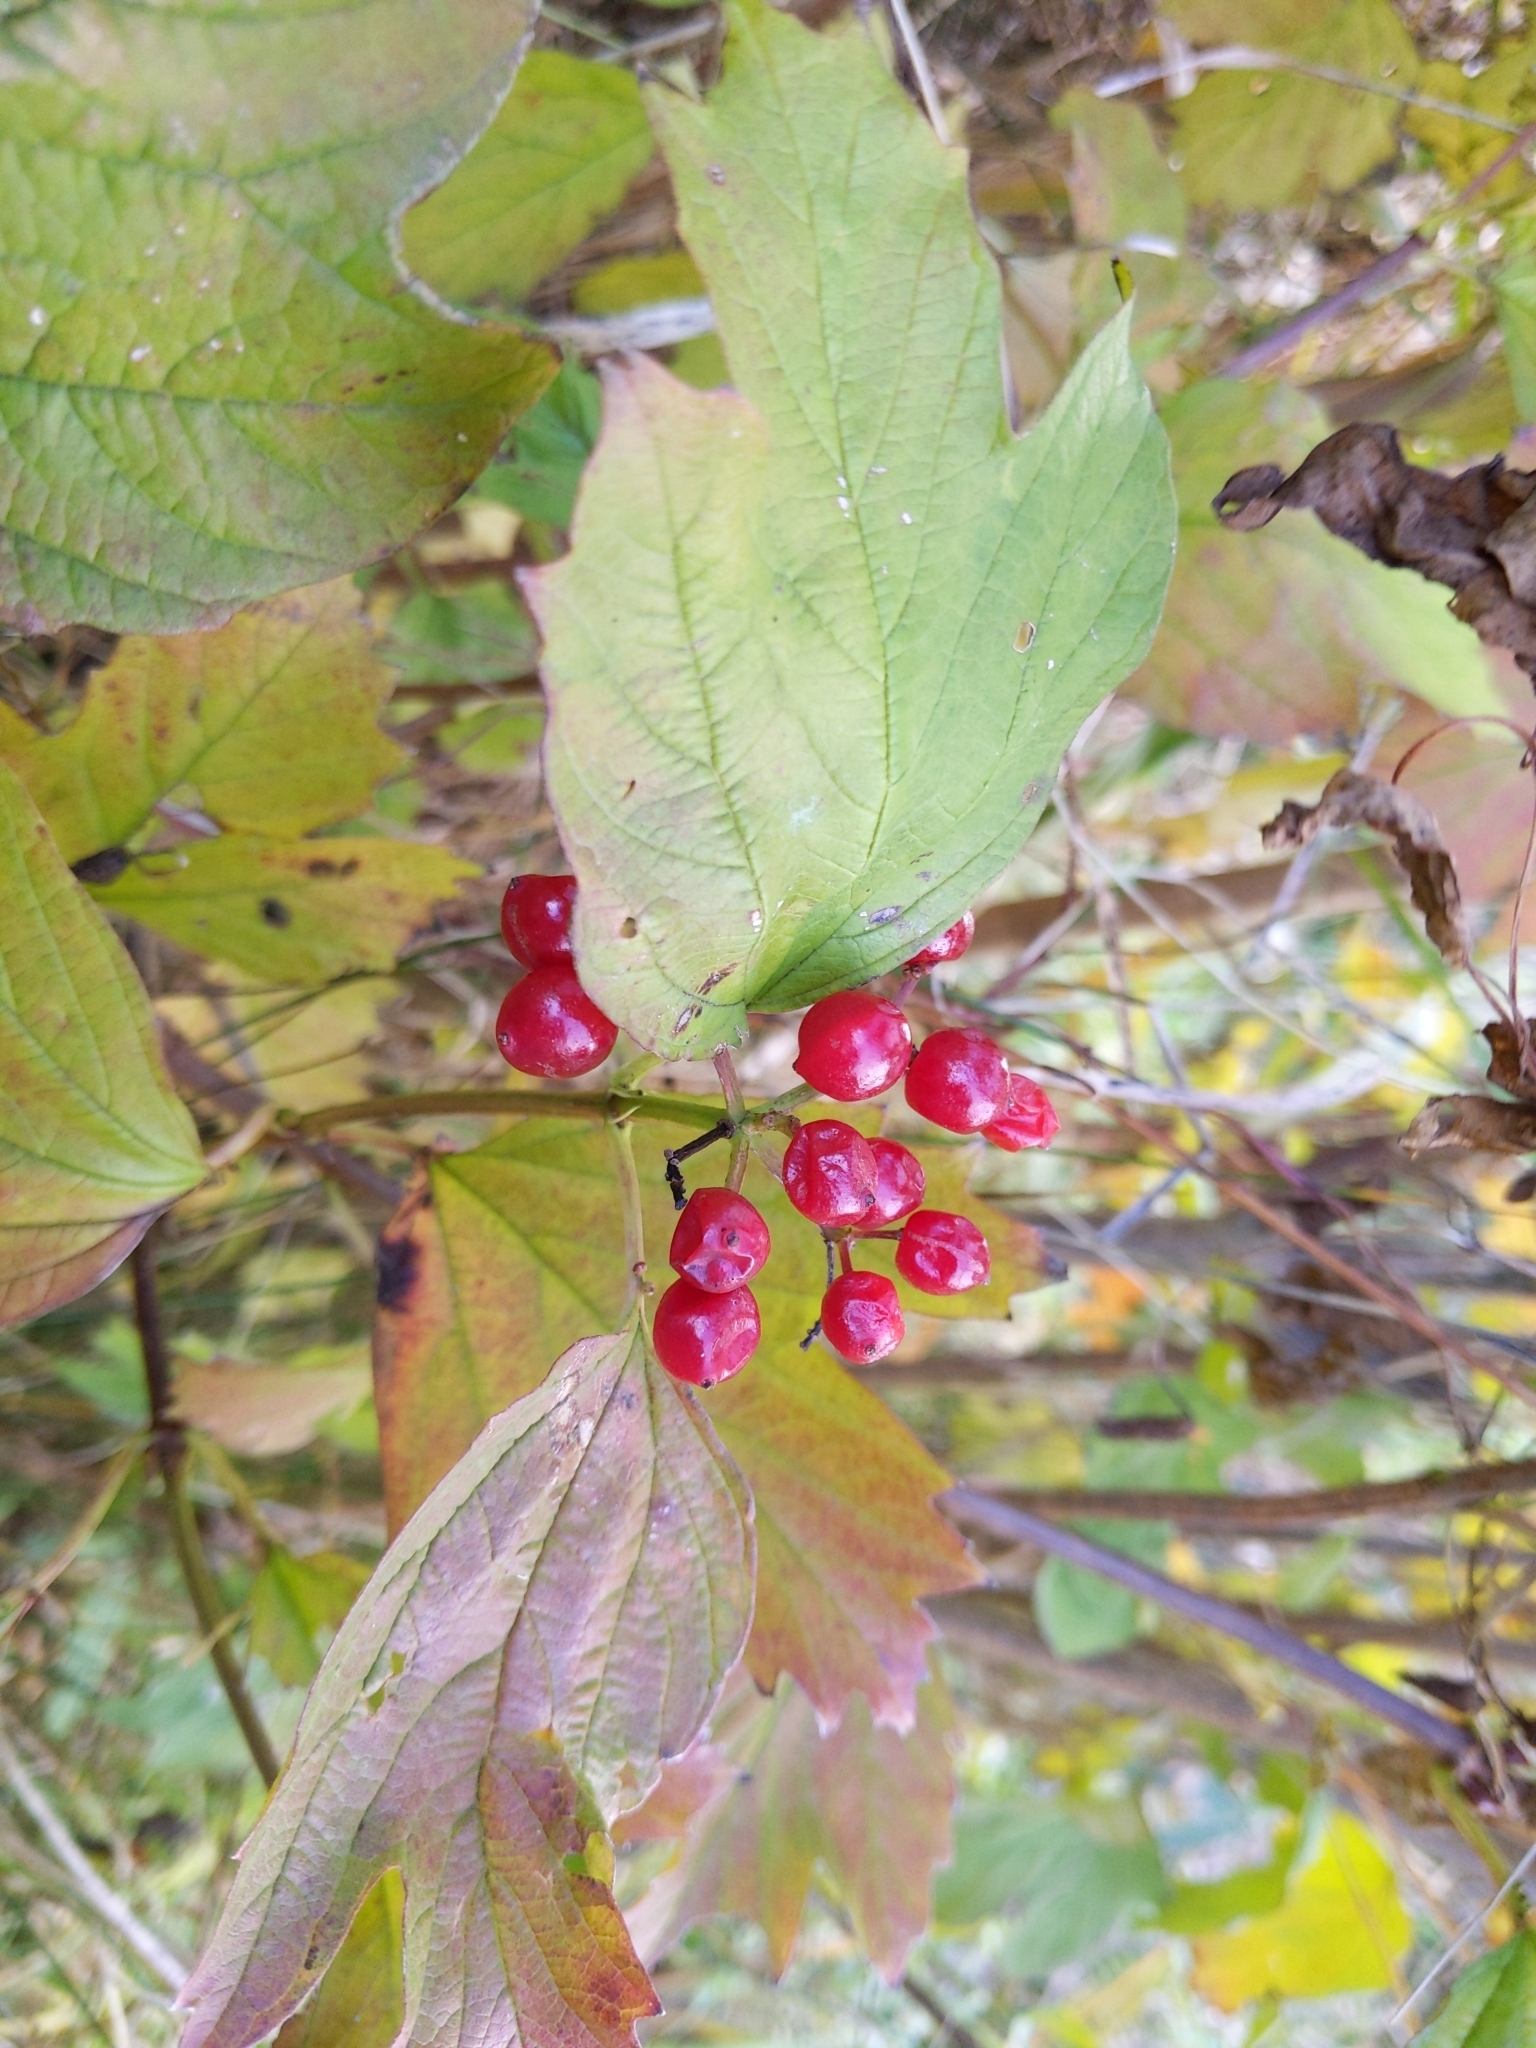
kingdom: Plantae
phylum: Tracheophyta
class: Magnoliopsida
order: Dipsacales
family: Viburnaceae
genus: Viburnum
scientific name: Viburnum opulus
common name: Guelder-rose
